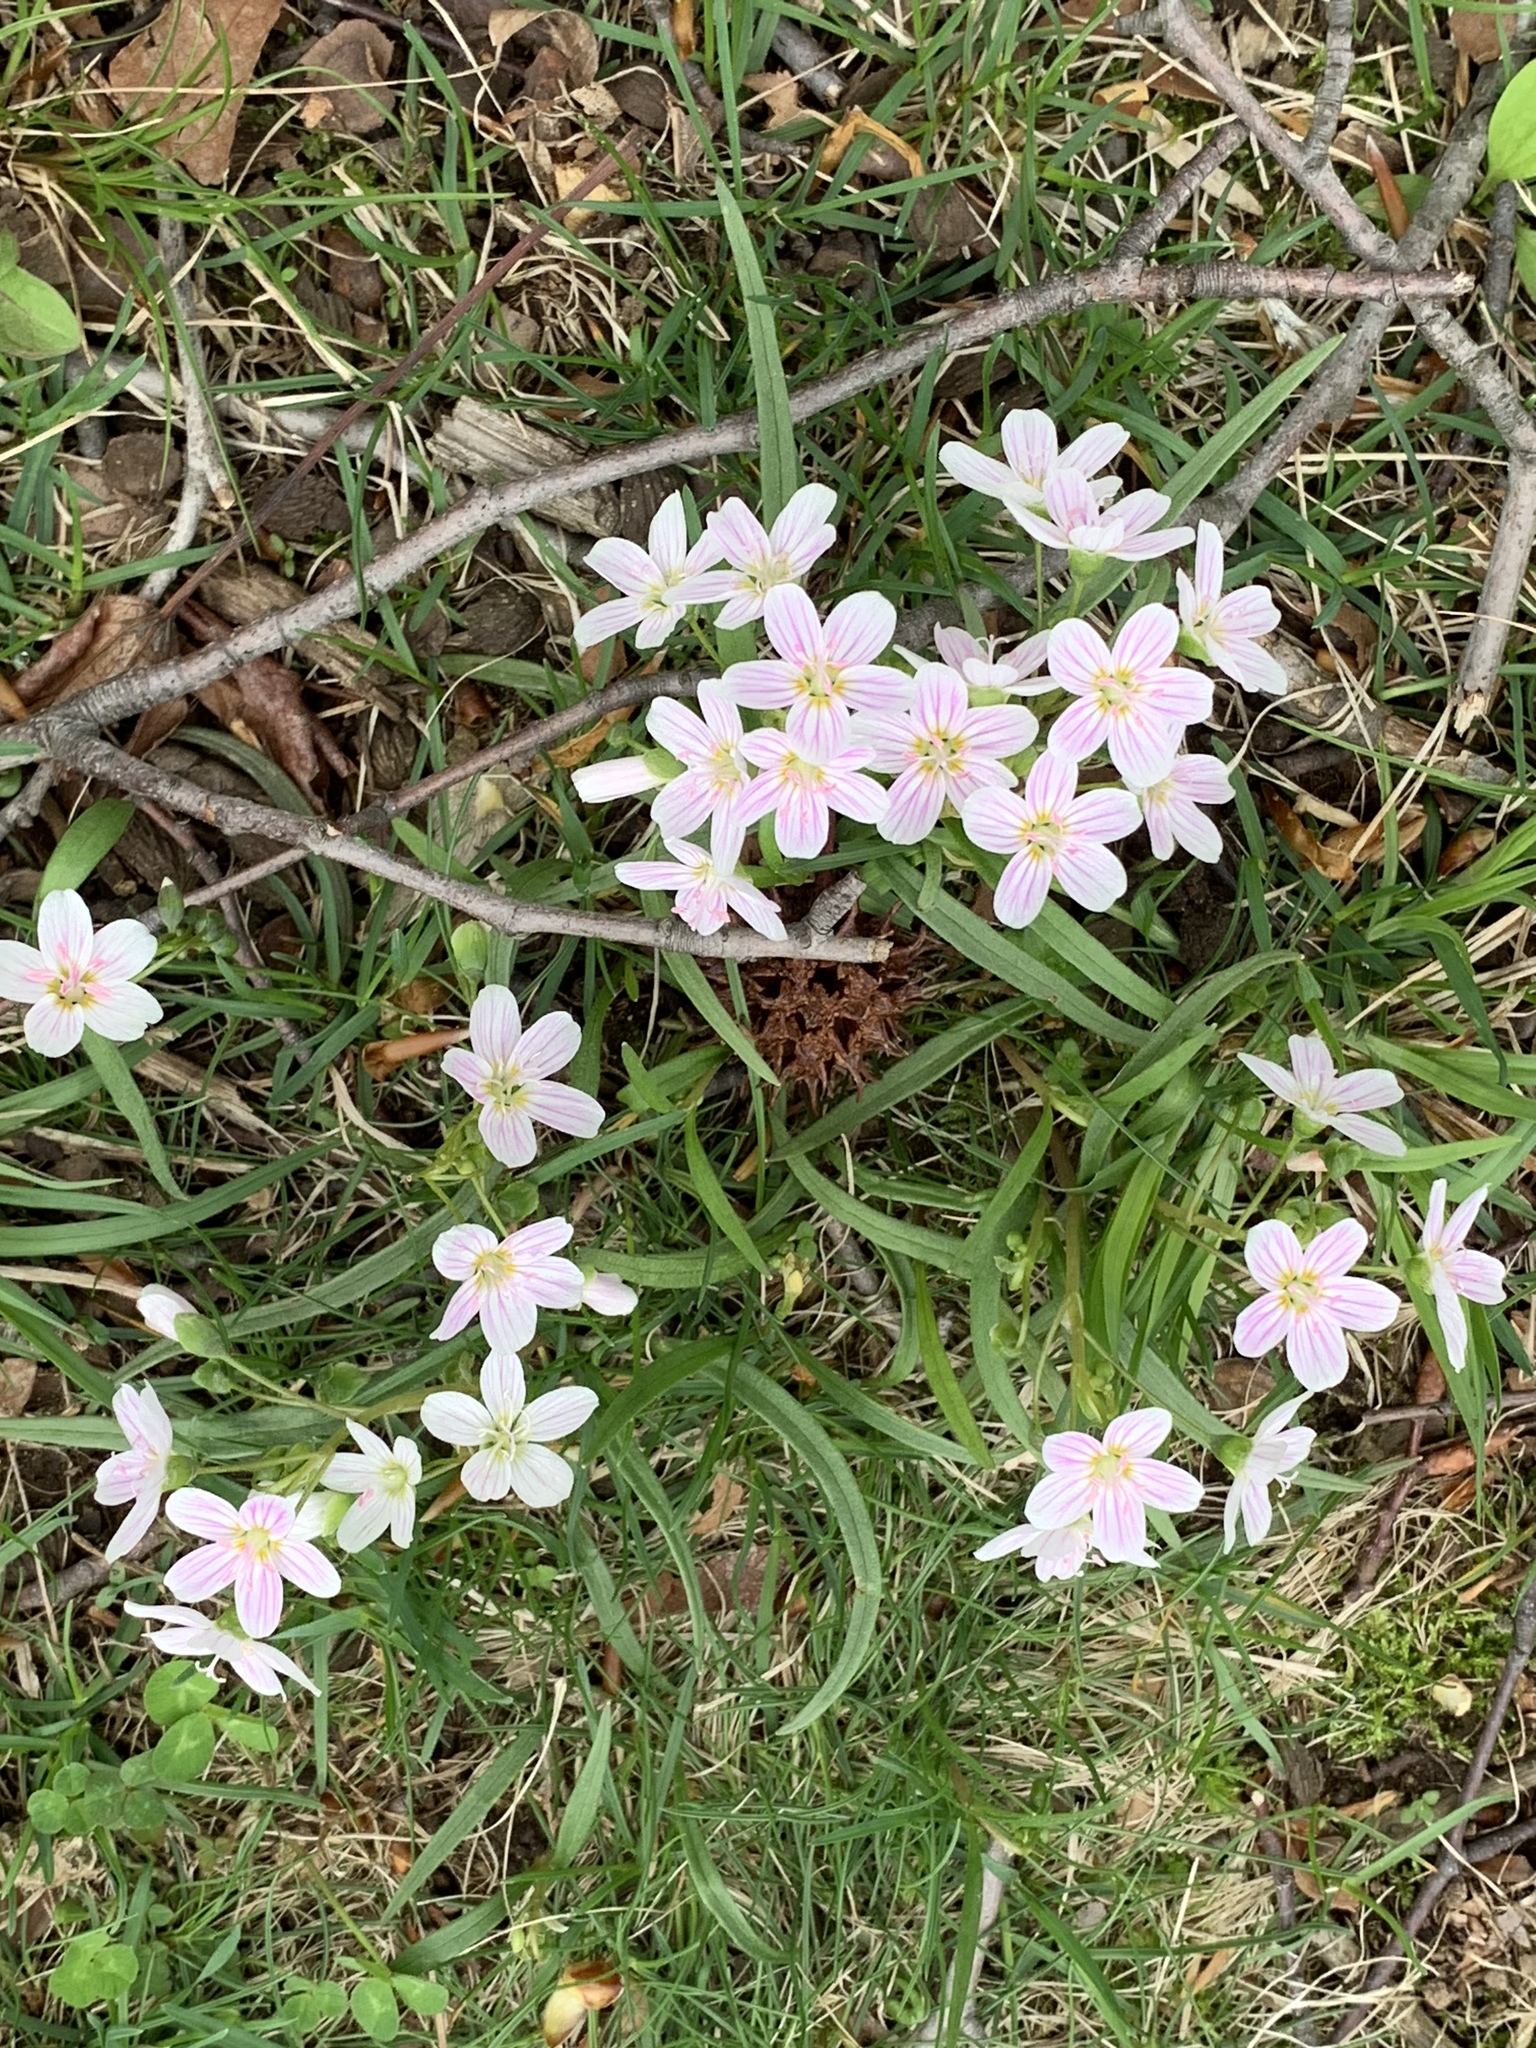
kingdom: Plantae
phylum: Tracheophyta
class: Magnoliopsida
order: Caryophyllales
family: Montiaceae
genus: Claytonia
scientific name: Claytonia virginica
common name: Virginia springbeauty
